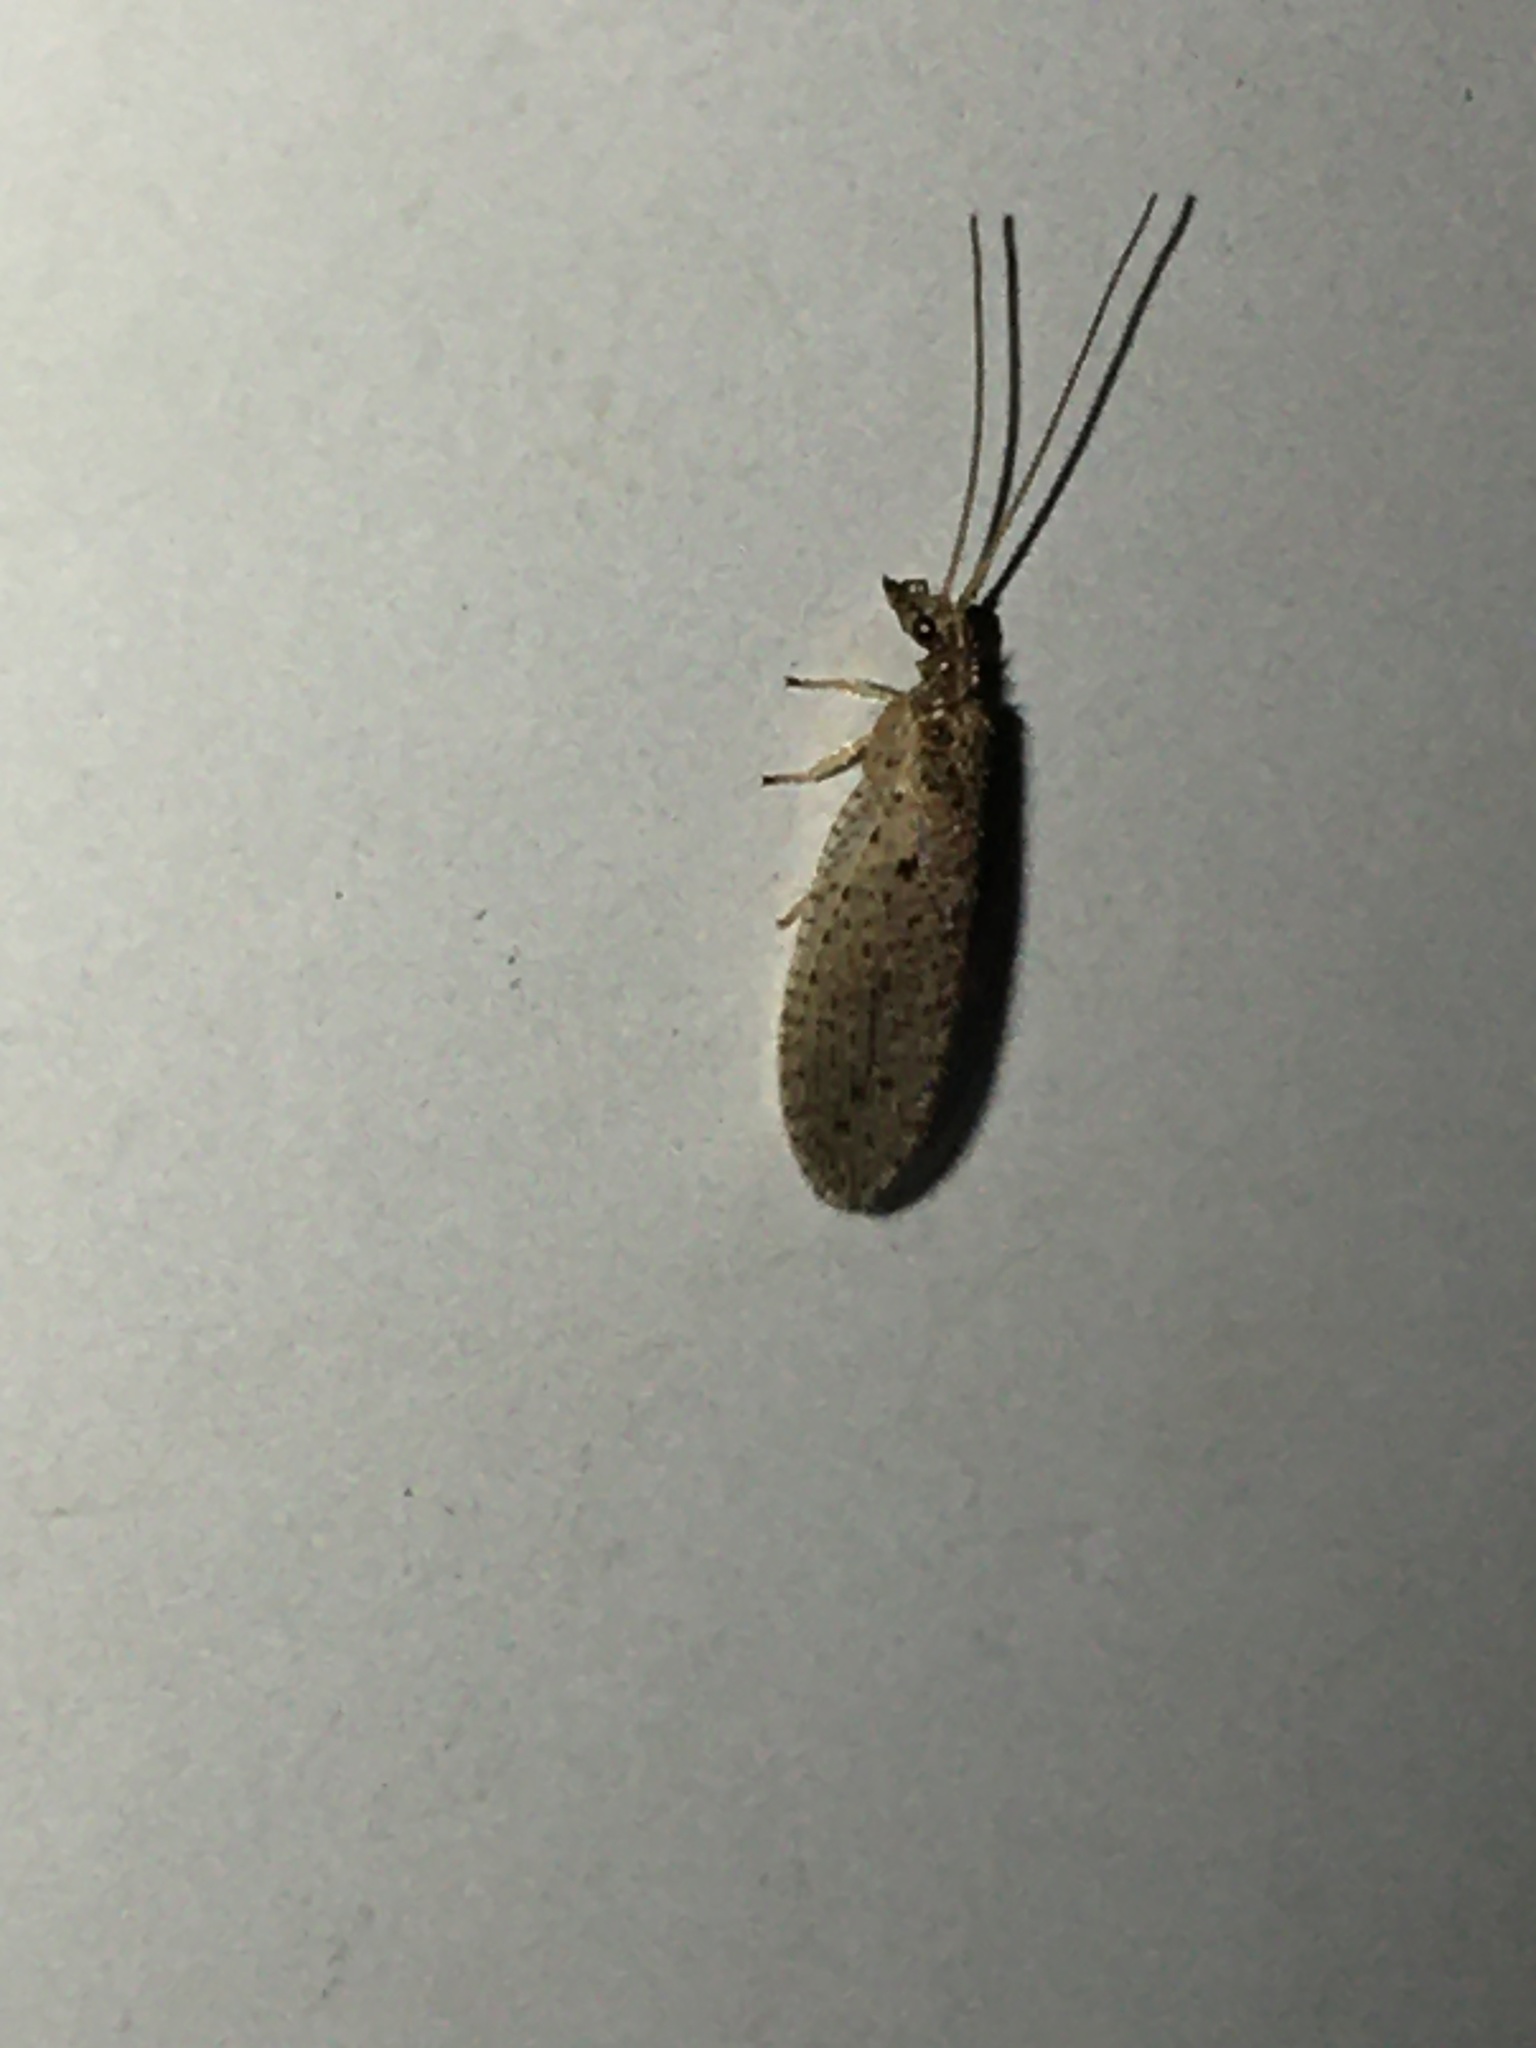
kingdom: Animalia
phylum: Arthropoda
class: Insecta
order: Neuroptera
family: Hemerobiidae
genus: Micromus
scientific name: Micromus subanticus
